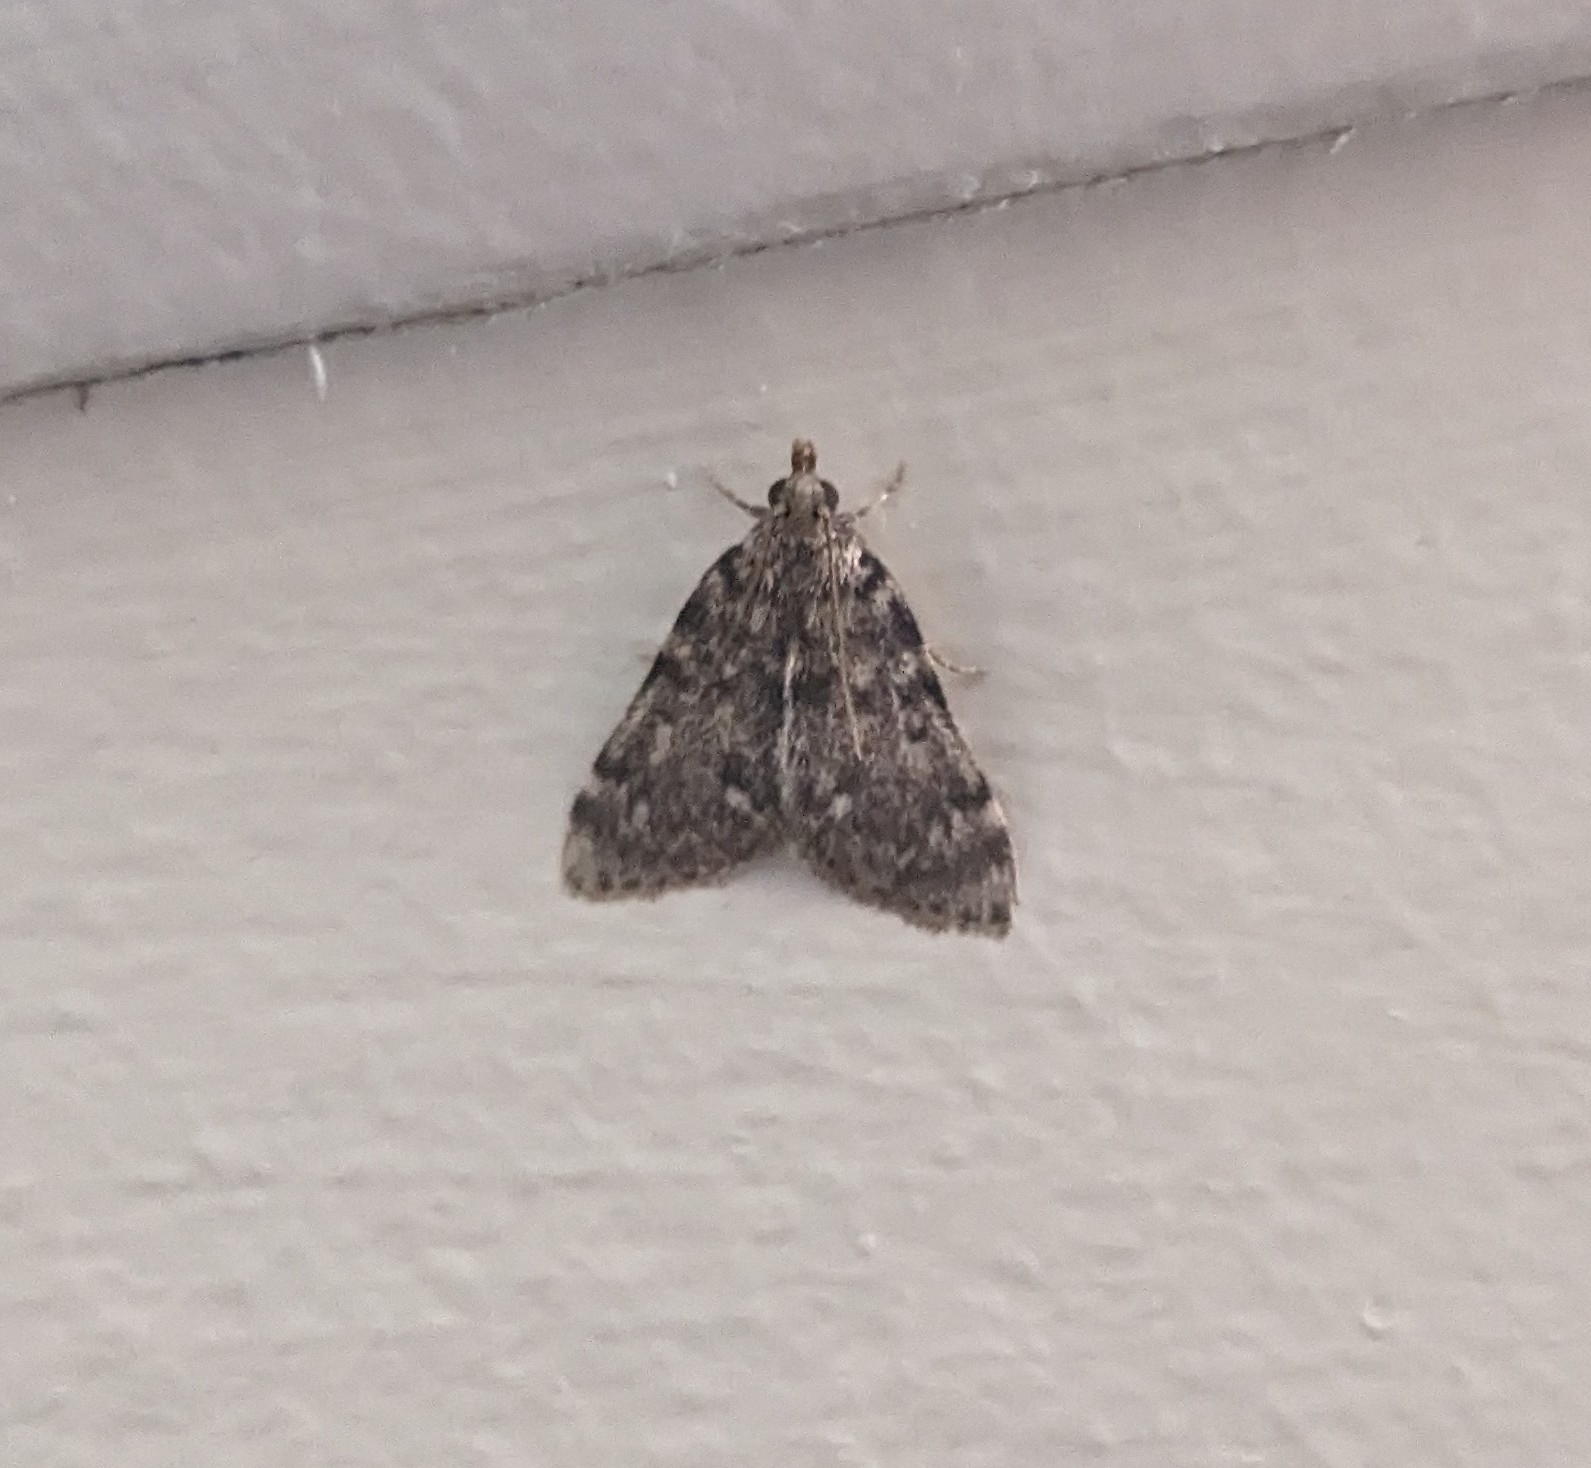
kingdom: Animalia
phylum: Arthropoda
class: Insecta
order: Lepidoptera
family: Pyralidae
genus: Aglossa
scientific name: Aglossa pinguinalis
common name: Large tabby
